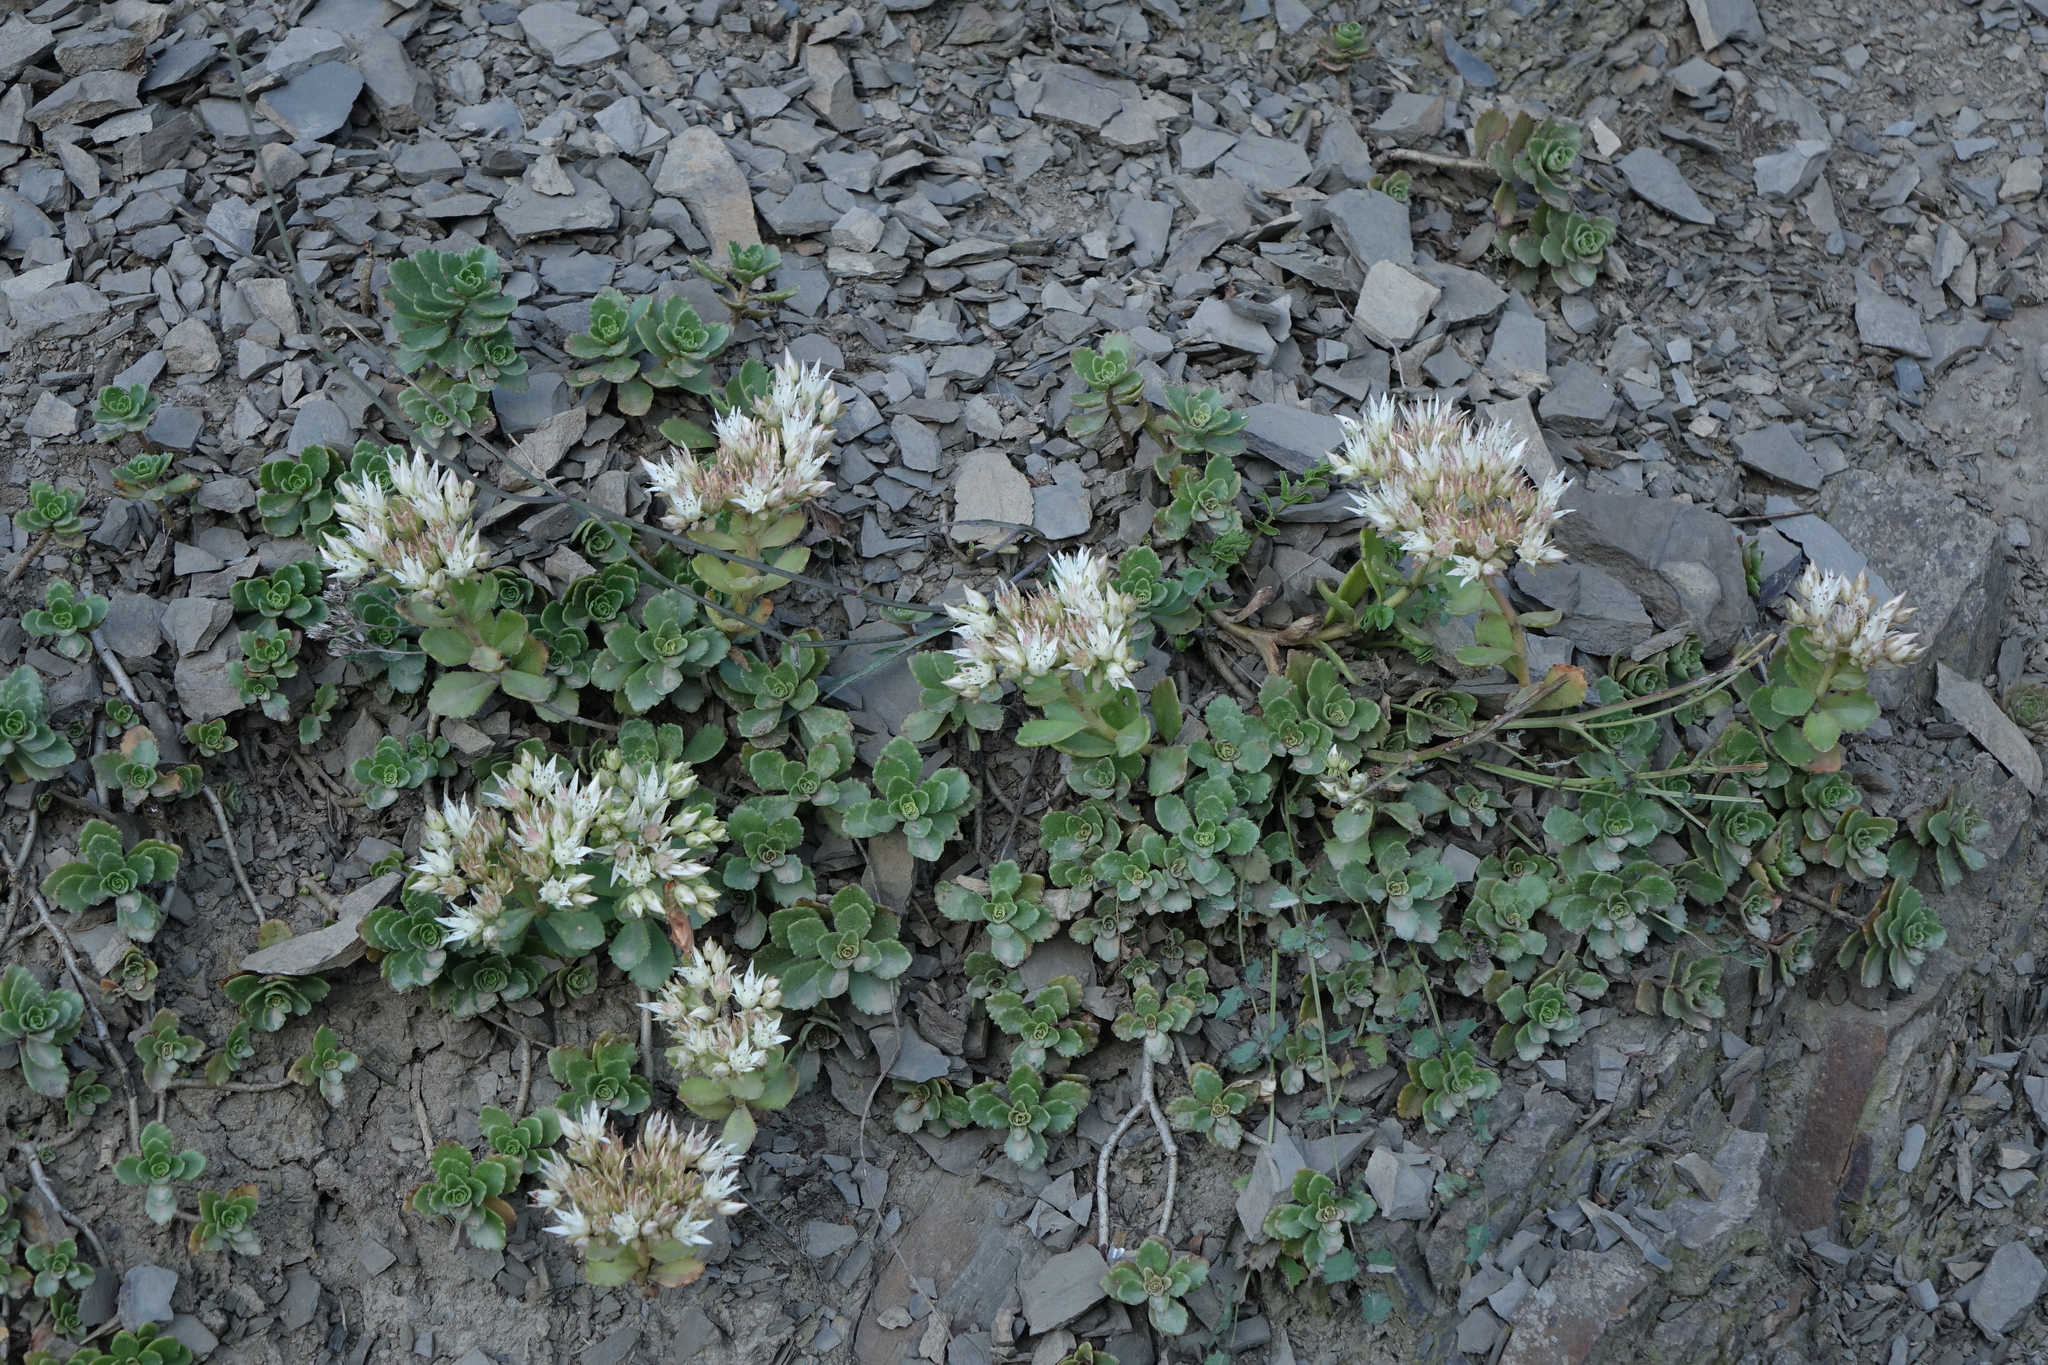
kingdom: Plantae
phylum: Tracheophyta
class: Magnoliopsida
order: Saxifragales
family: Crassulaceae
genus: Phedimus
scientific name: Phedimus spurius
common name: Caucasian stonecrop
